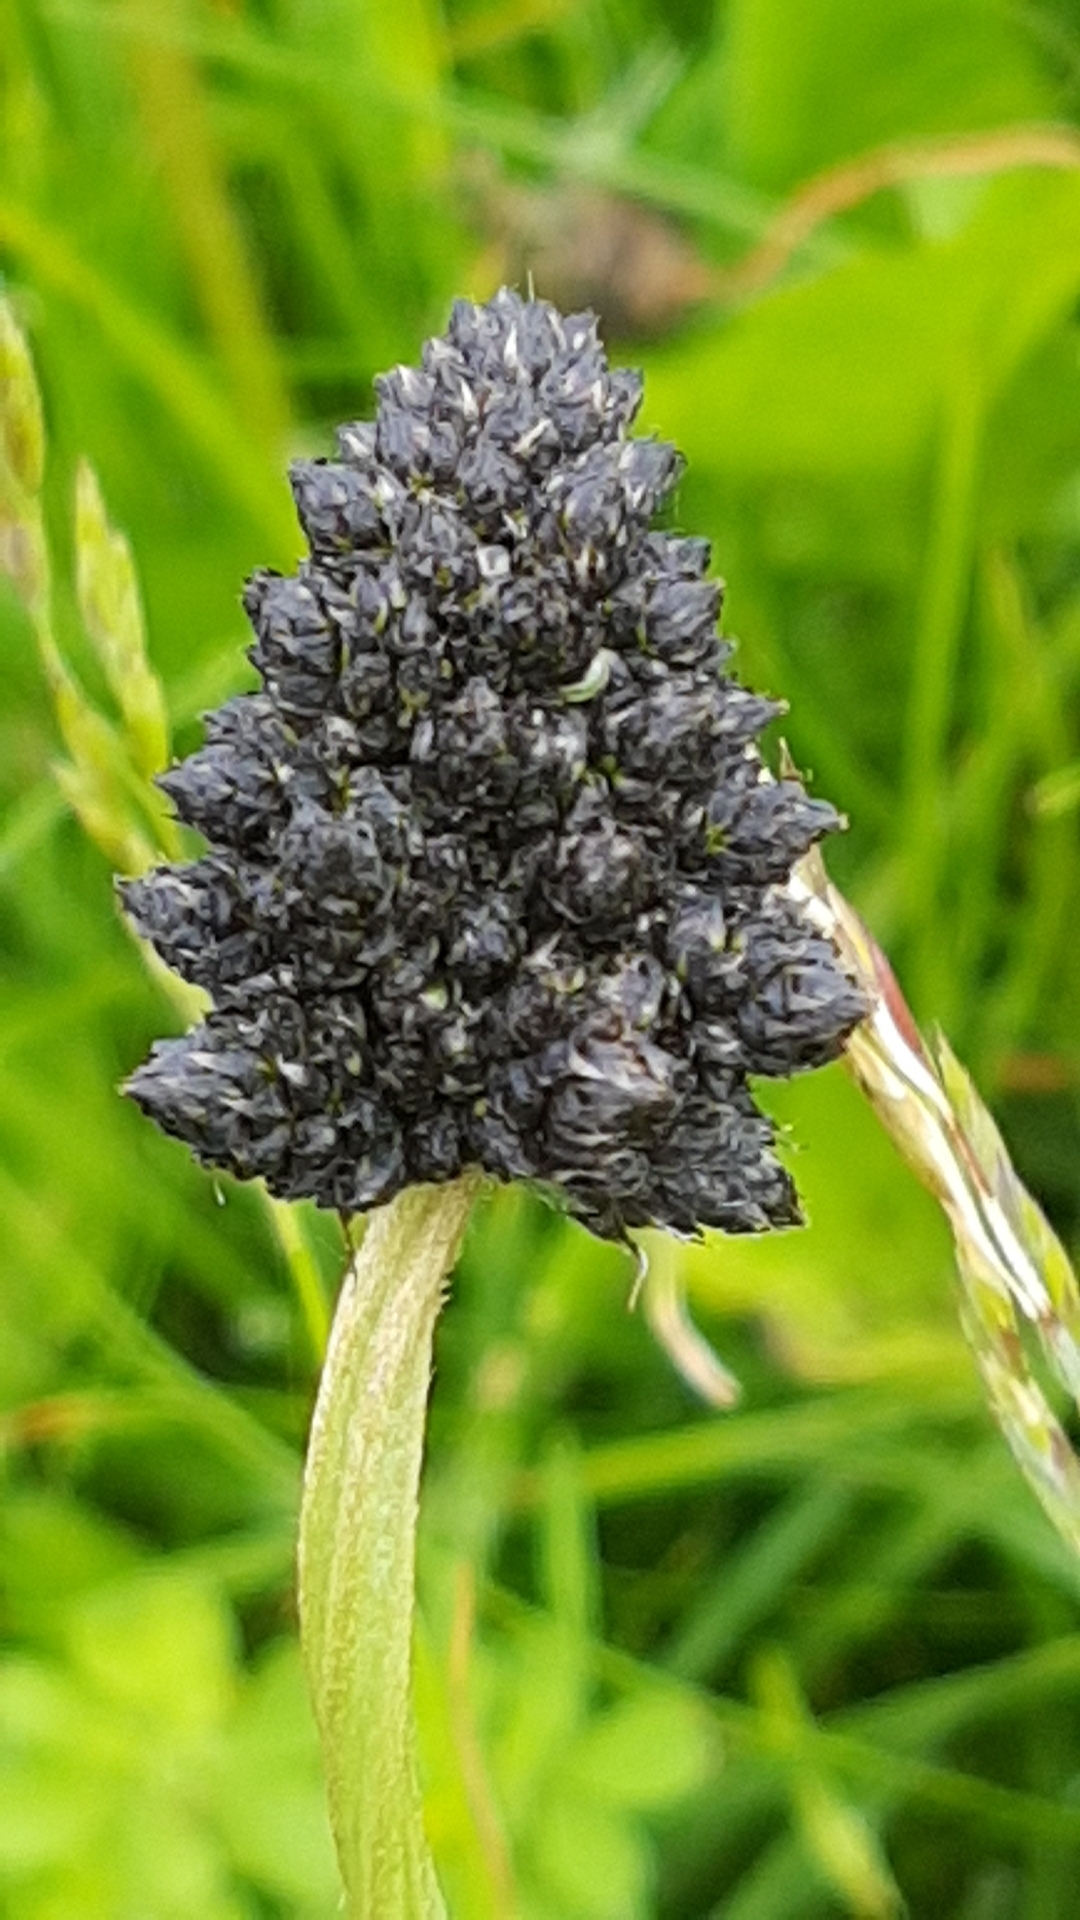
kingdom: Plantae
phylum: Tracheophyta
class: Magnoliopsida
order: Lamiales
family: Plantaginaceae
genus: Plantago
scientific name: Plantago lanceolata
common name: Ribwort plantain
